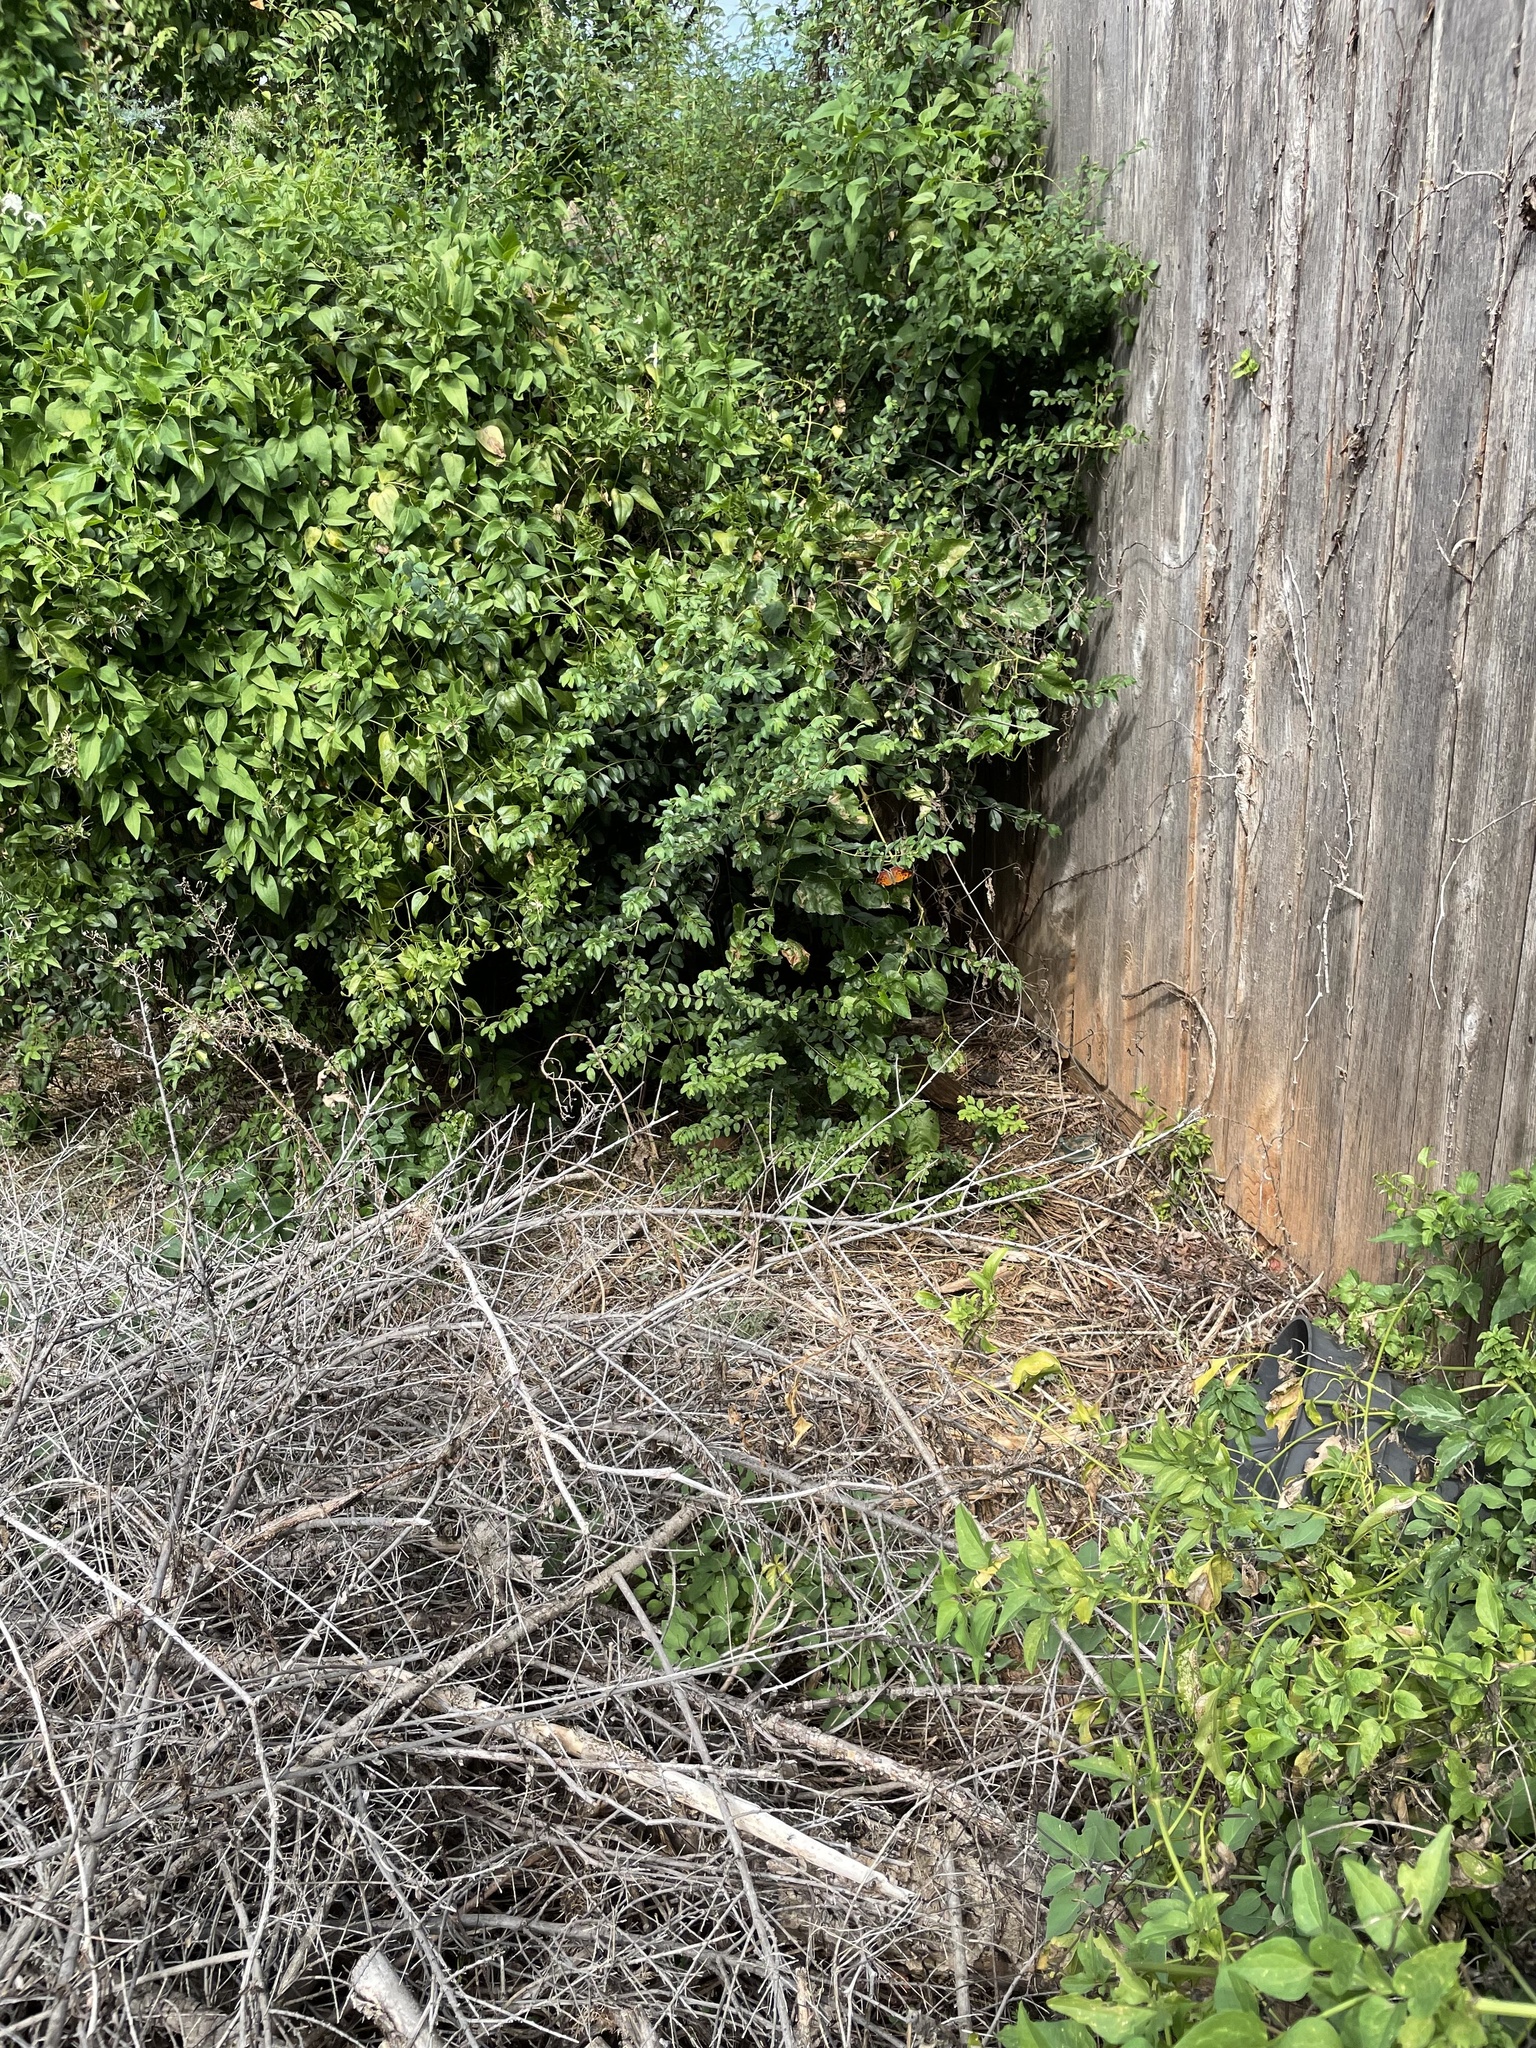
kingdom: Animalia
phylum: Arthropoda
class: Insecta
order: Lepidoptera
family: Nymphalidae
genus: Polygonia
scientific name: Polygonia interrogationis
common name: Question mark
